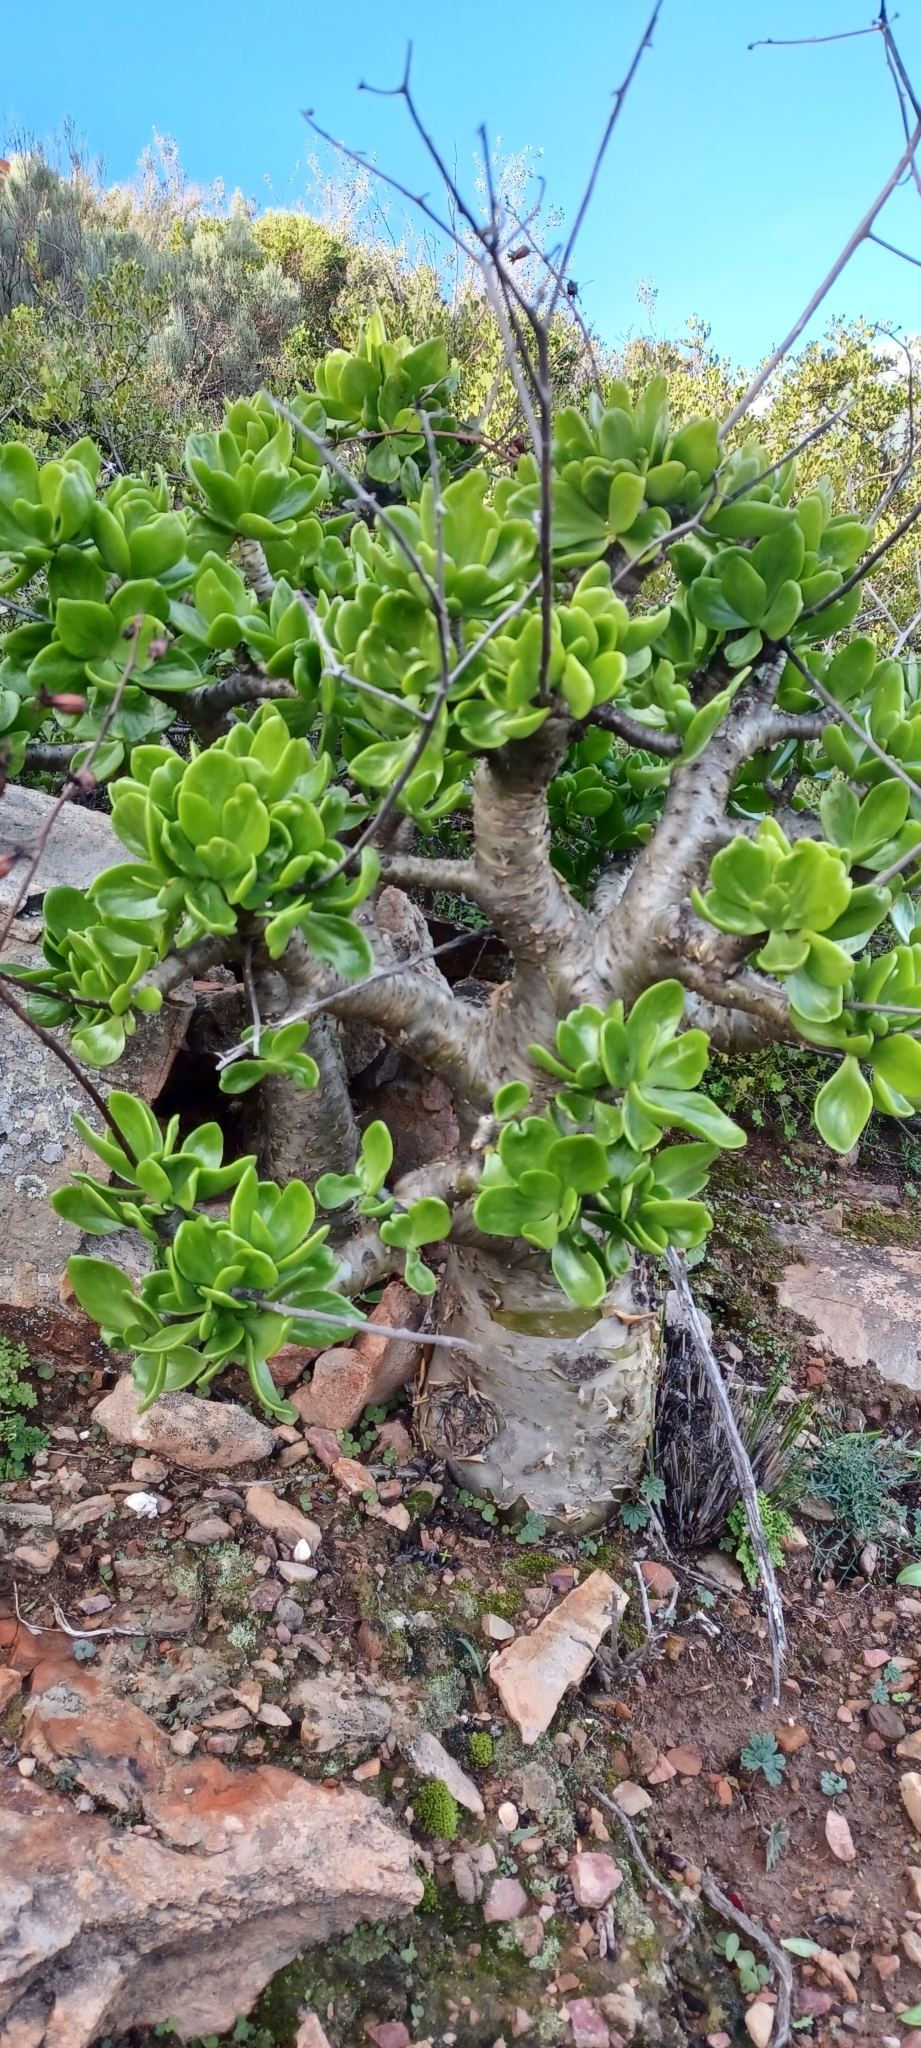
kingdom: Plantae
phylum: Tracheophyta
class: Magnoliopsida
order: Saxifragales
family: Crassulaceae
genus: Tylecodon
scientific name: Tylecodon paniculatus
